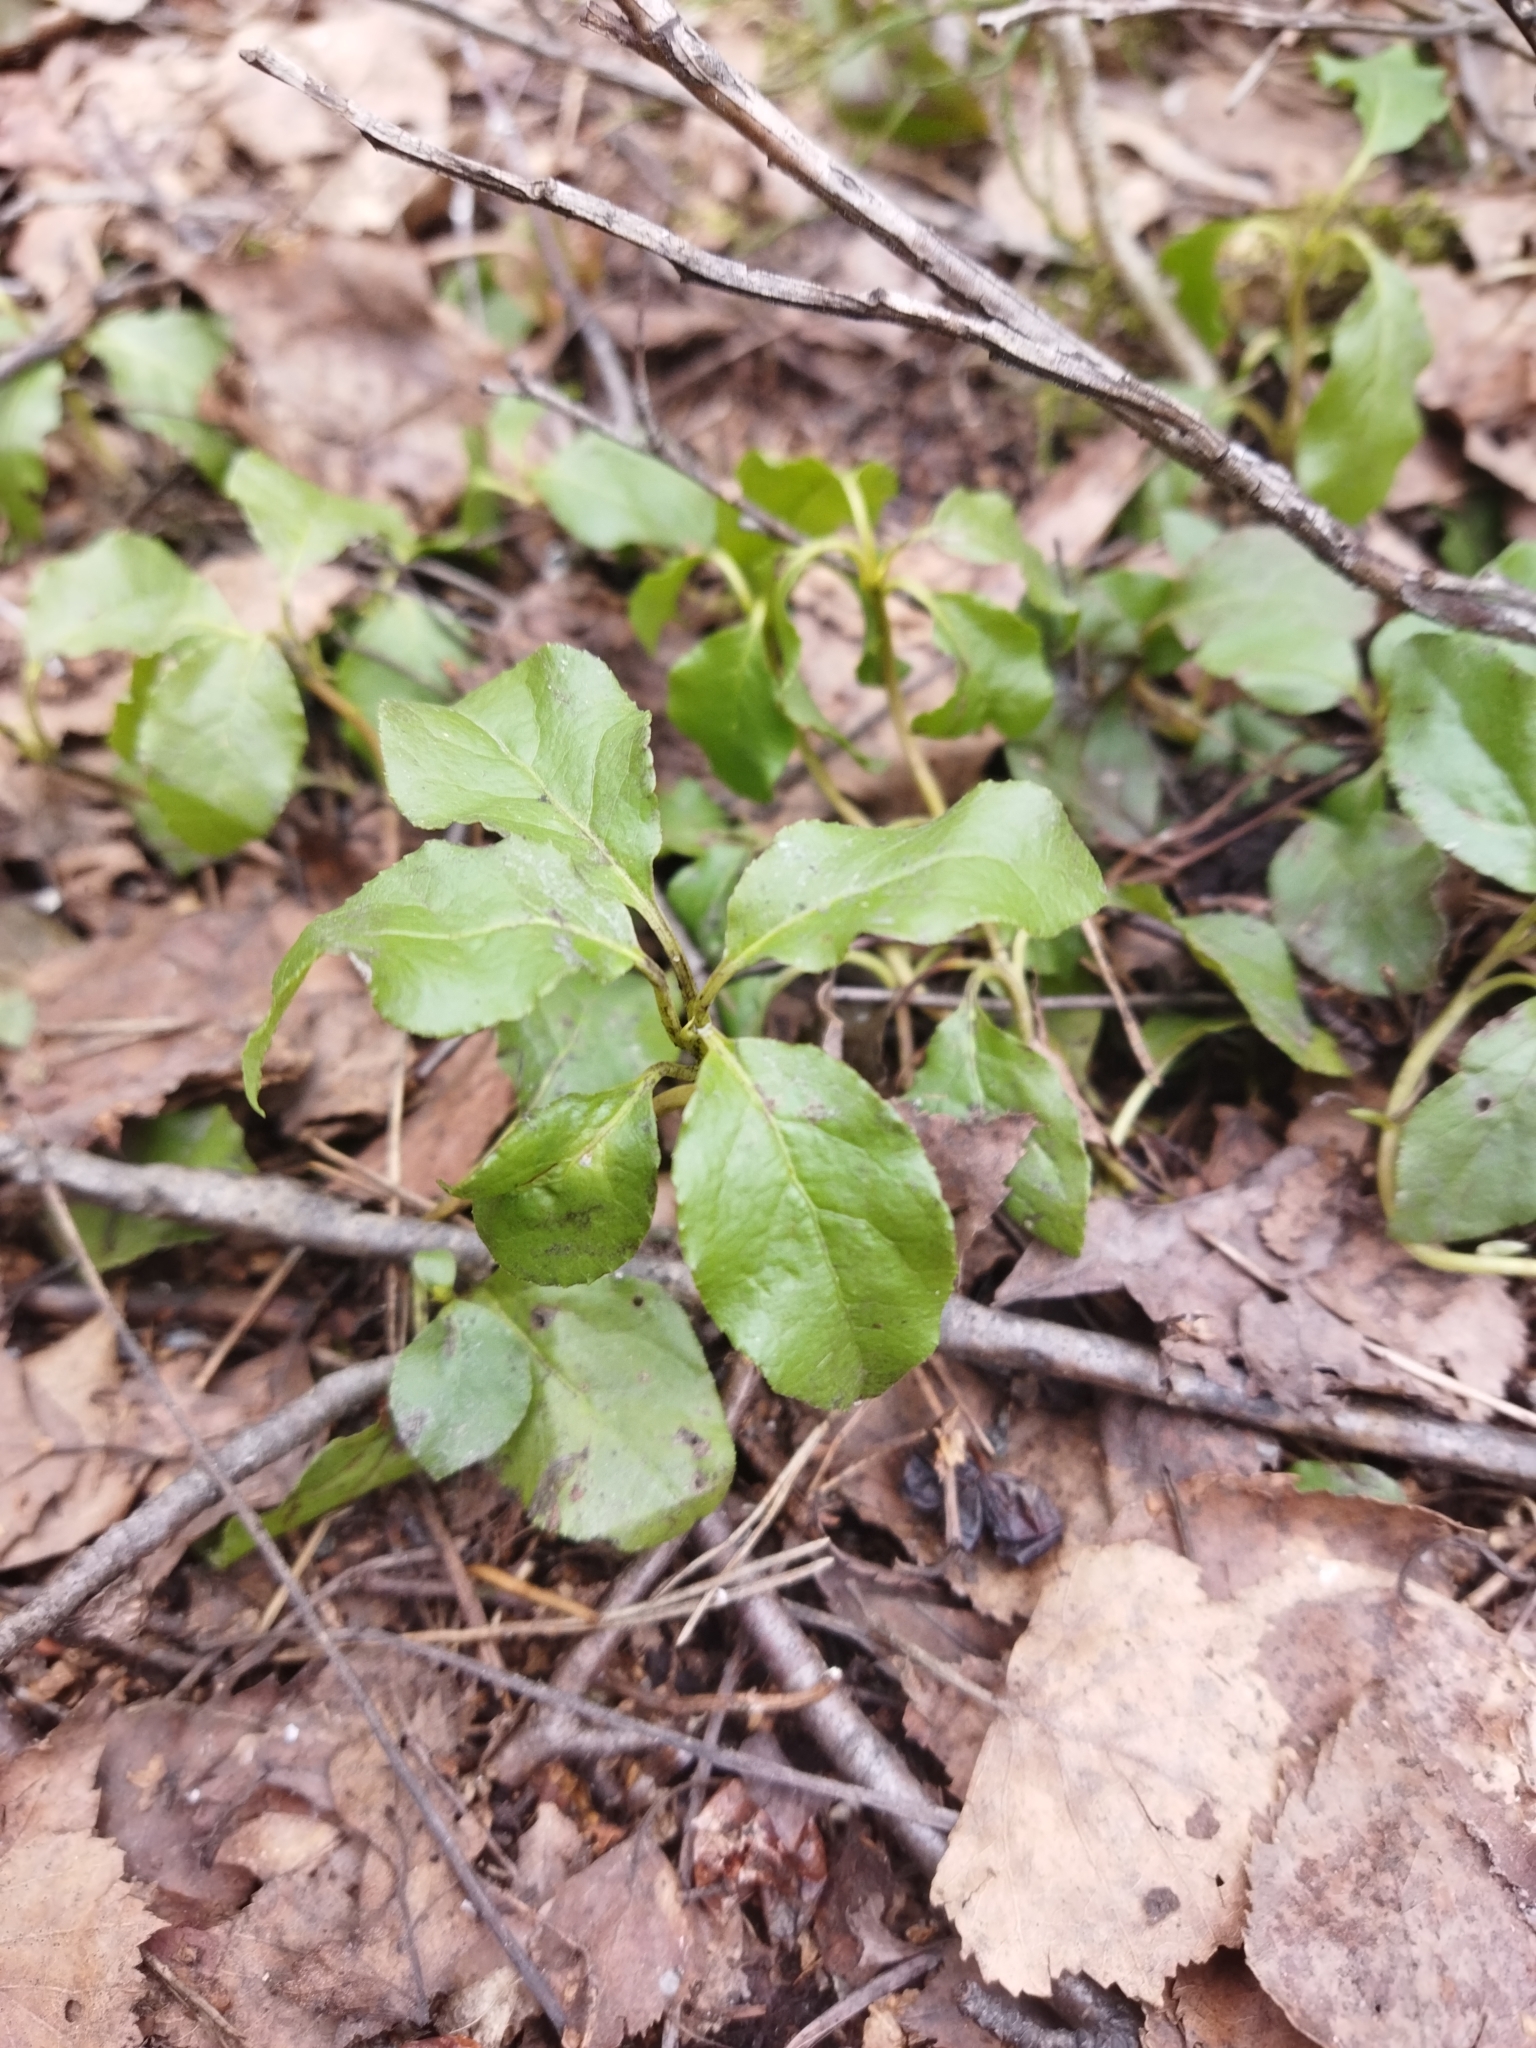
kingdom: Plantae
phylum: Tracheophyta
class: Magnoliopsida
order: Ericales
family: Ericaceae
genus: Orthilia
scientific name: Orthilia secunda
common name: One-sided orthilia
